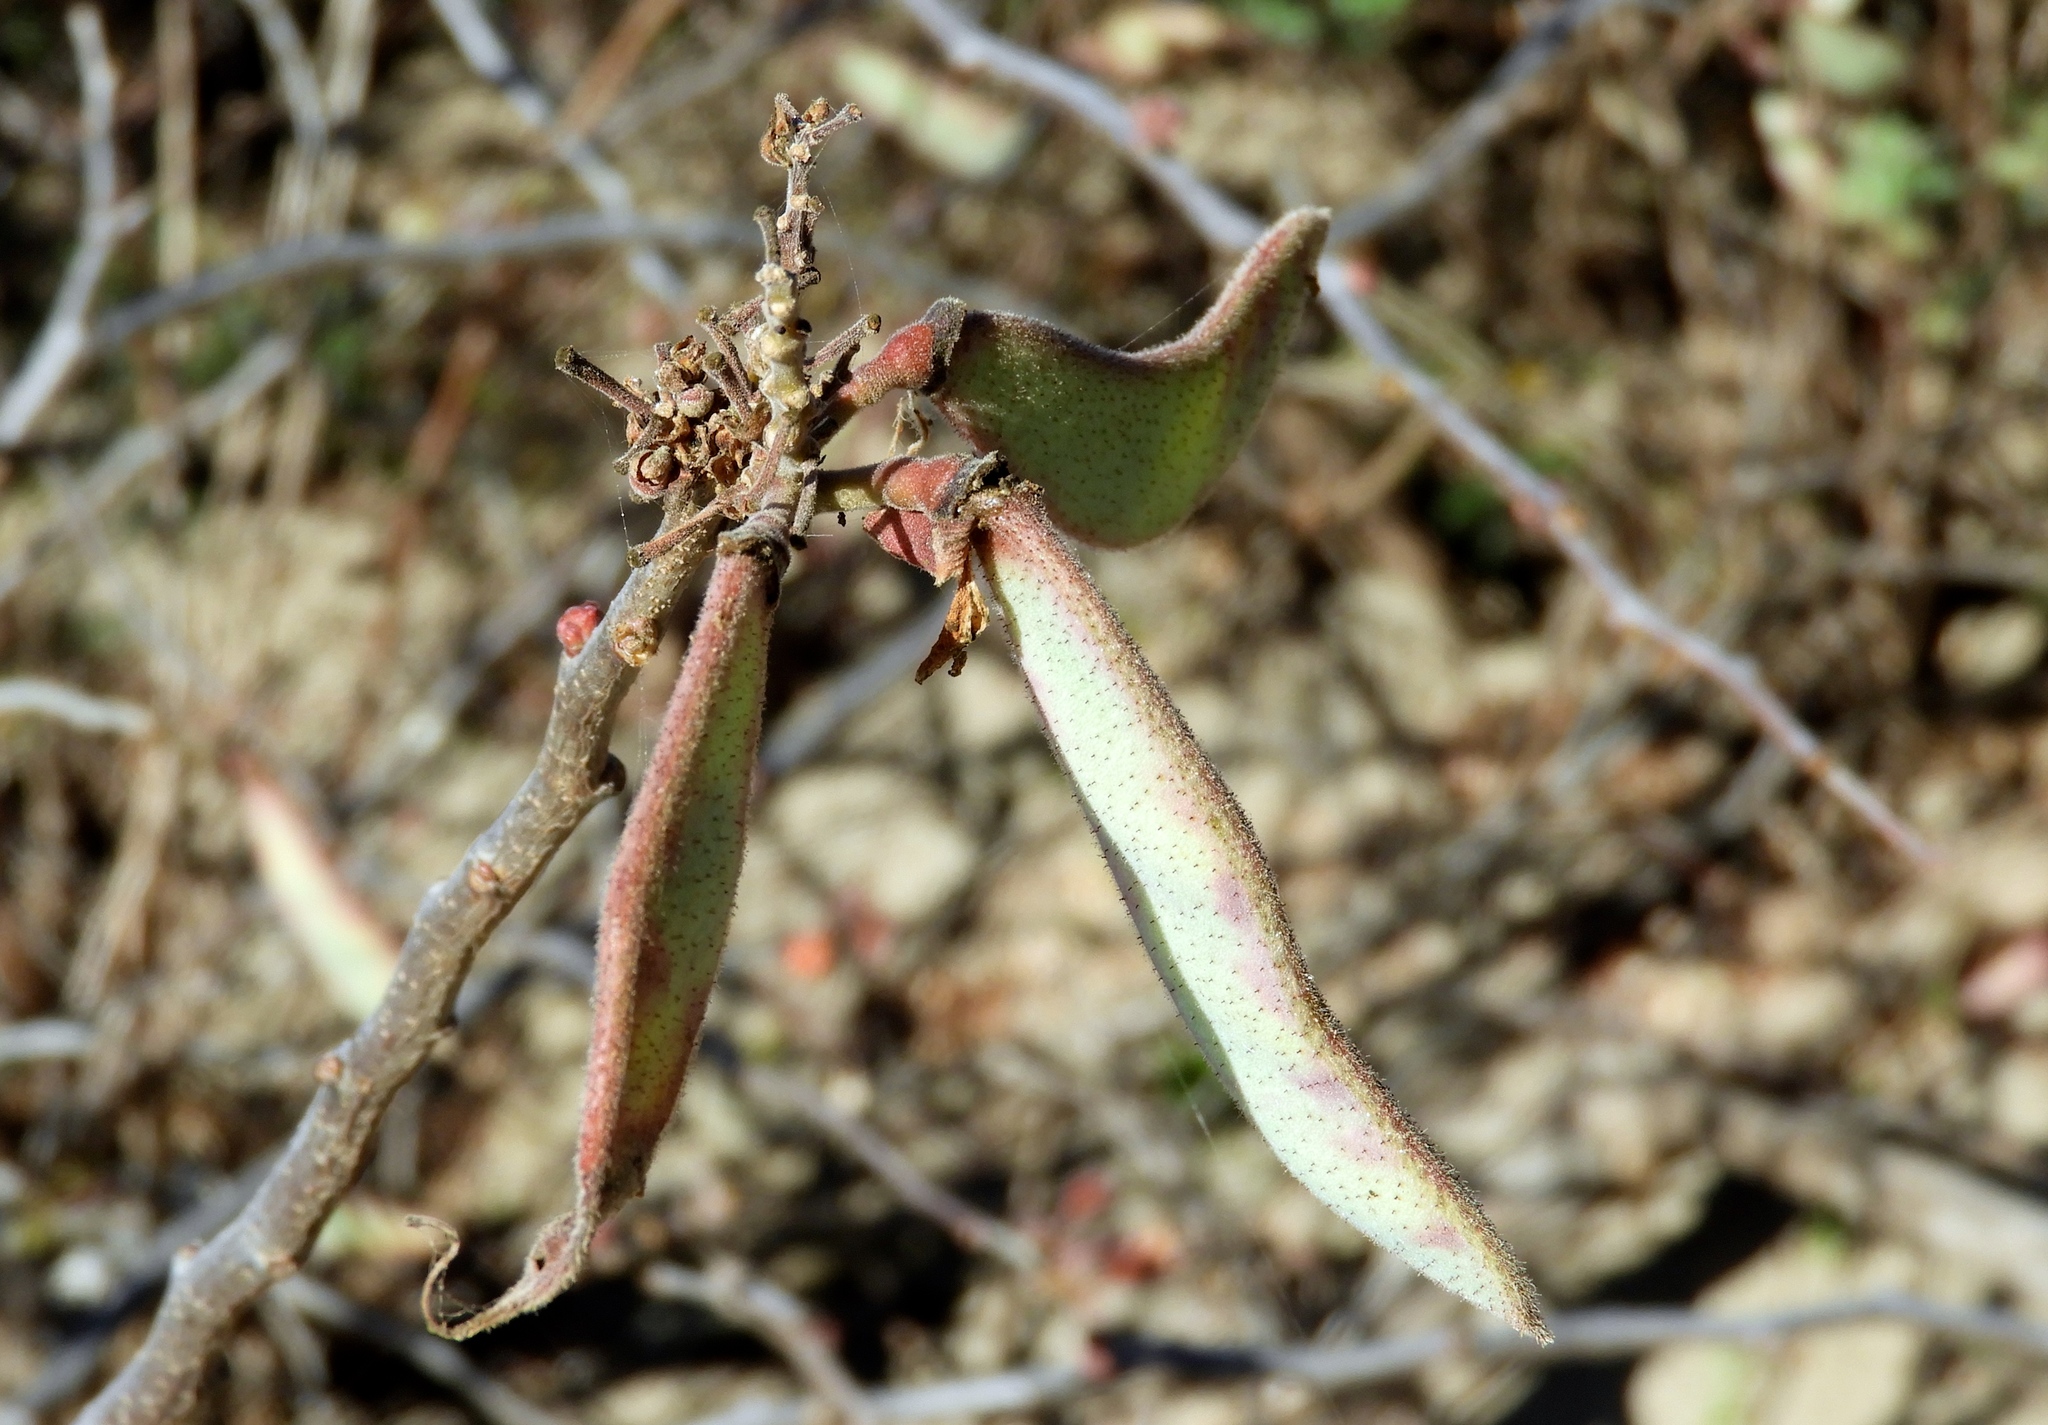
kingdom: Plantae
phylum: Tracheophyta
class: Magnoliopsida
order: Fabales
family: Fabaceae
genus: Erythrostemon
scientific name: Erythrostemon palmeri
